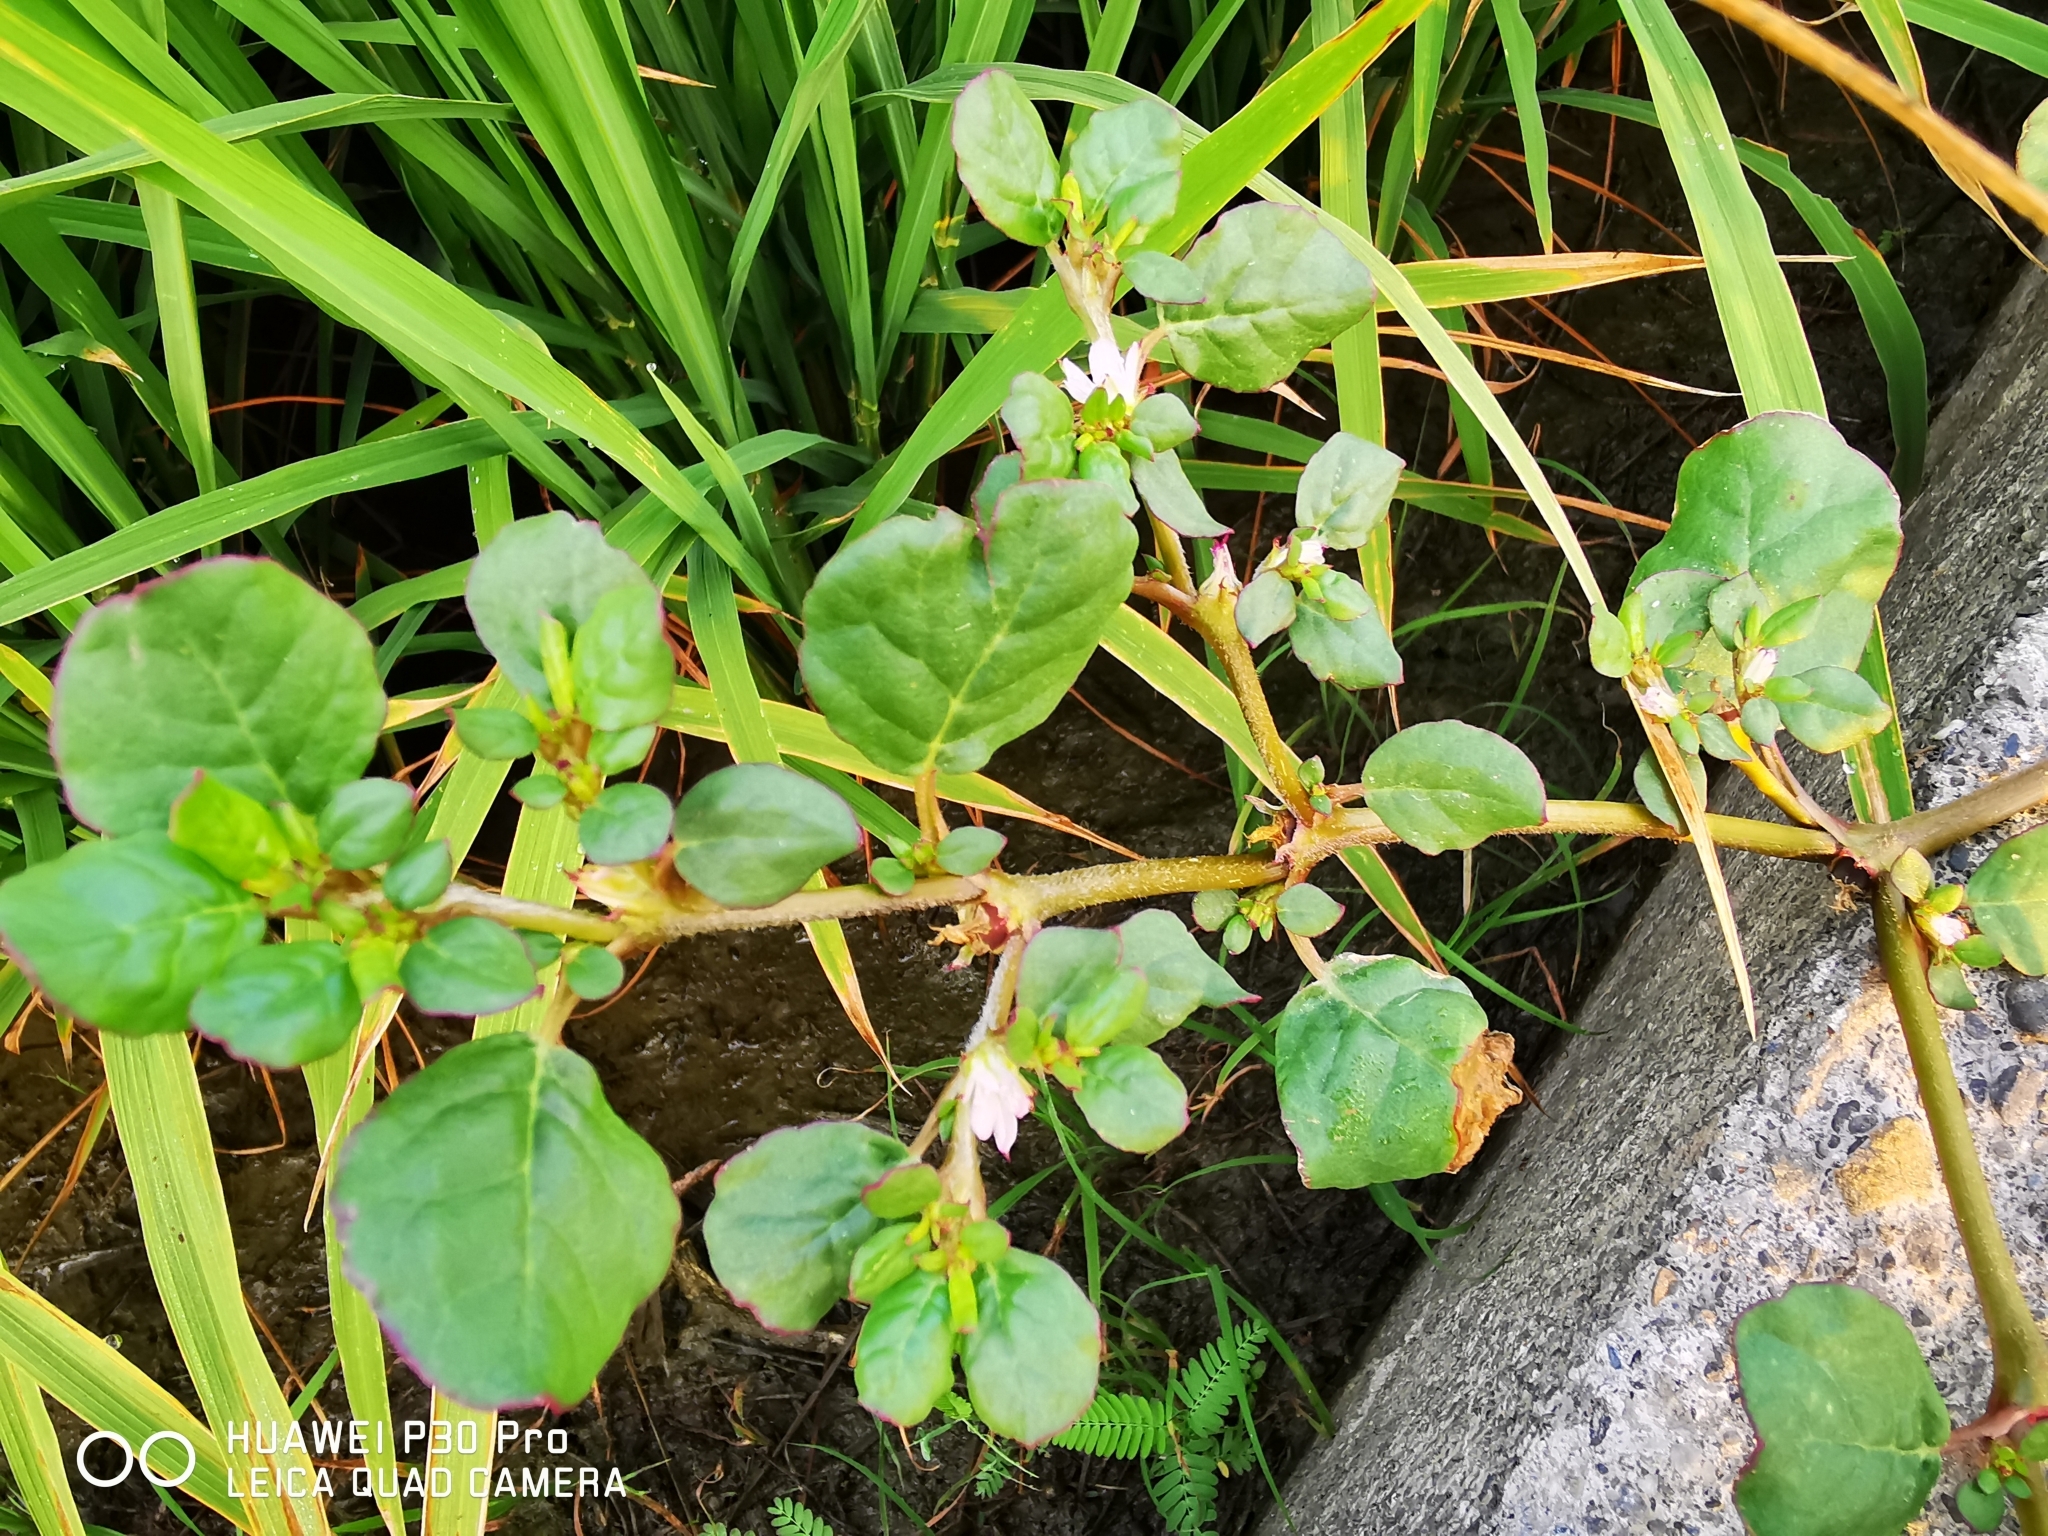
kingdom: Plantae
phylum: Tracheophyta
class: Magnoliopsida
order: Caryophyllales
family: Aizoaceae
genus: Trianthema
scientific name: Trianthema portulacastrum
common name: Desert horsepurslane
